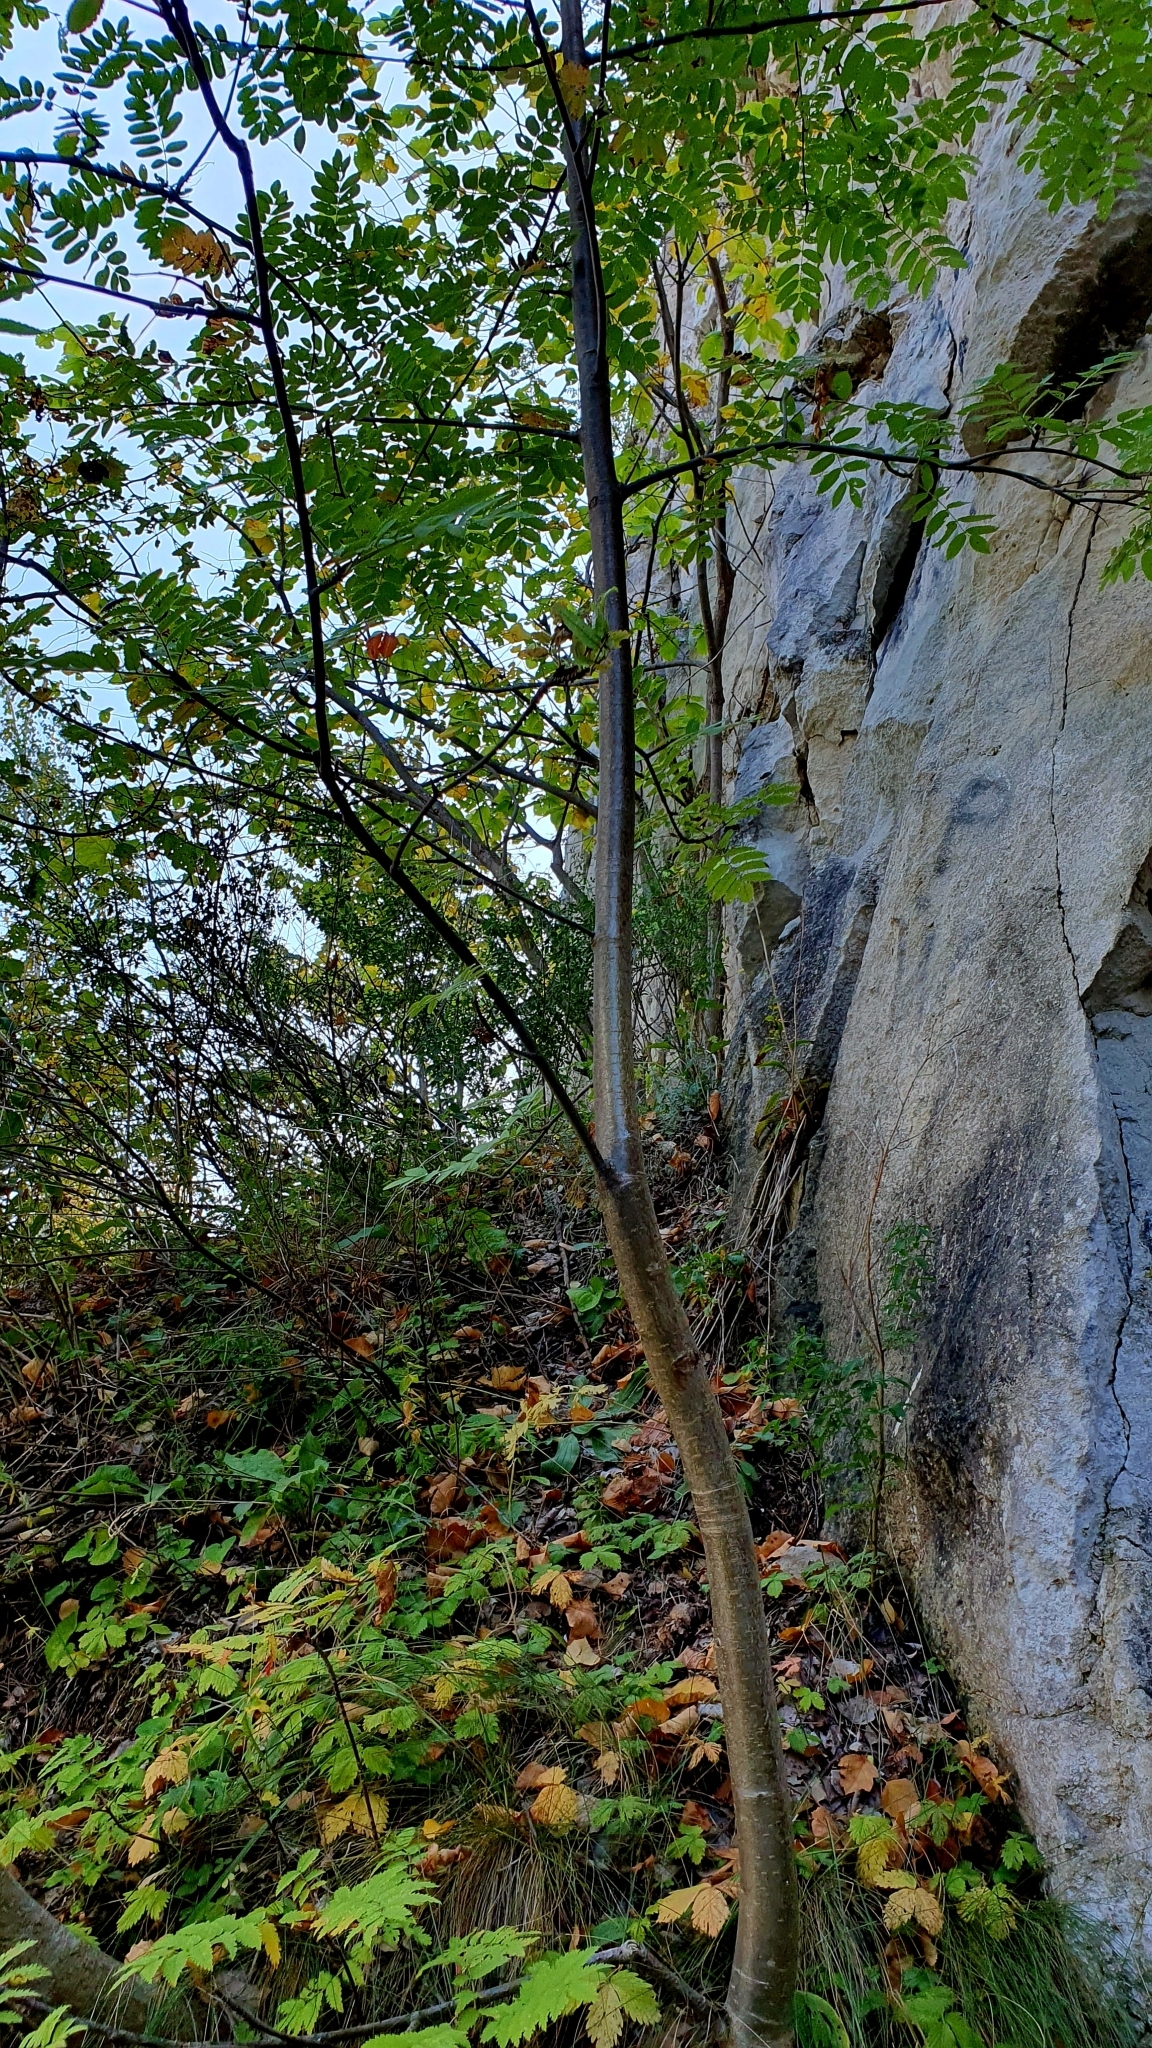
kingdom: Plantae
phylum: Tracheophyta
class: Magnoliopsida
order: Rosales
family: Rosaceae
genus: Sorbus
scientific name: Sorbus aucuparia
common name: Rowan
